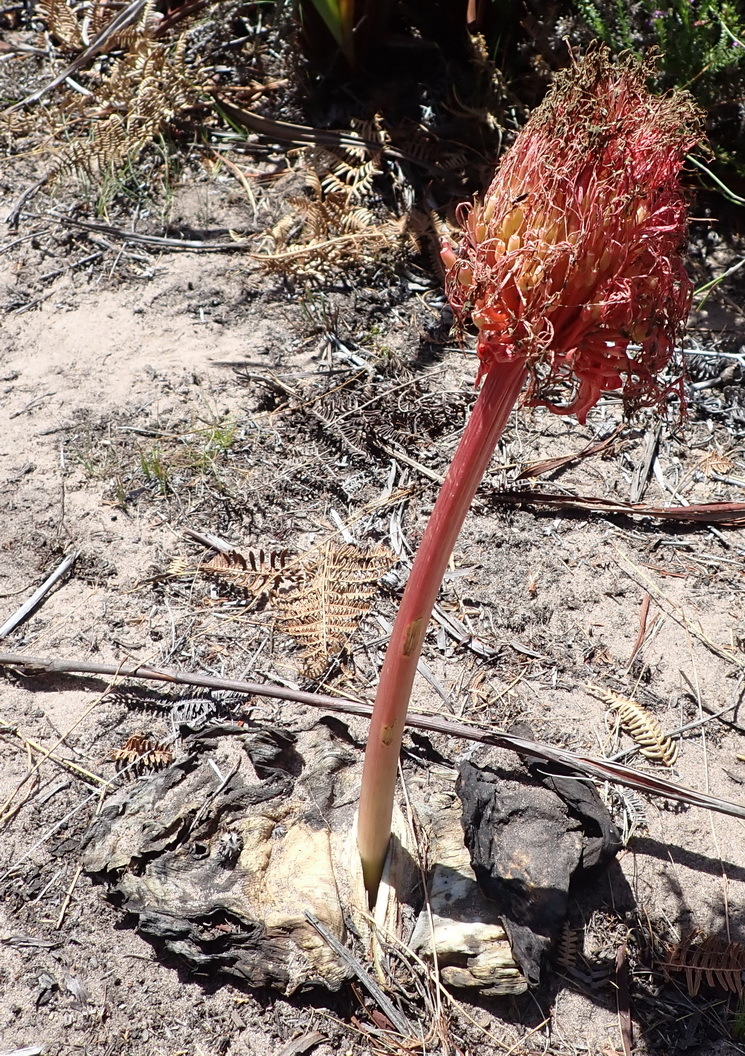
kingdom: Plantae
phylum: Tracheophyta
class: Liliopsida
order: Asparagales
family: Amaryllidaceae
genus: Haemanthus
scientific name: Haemanthus sanguineus
